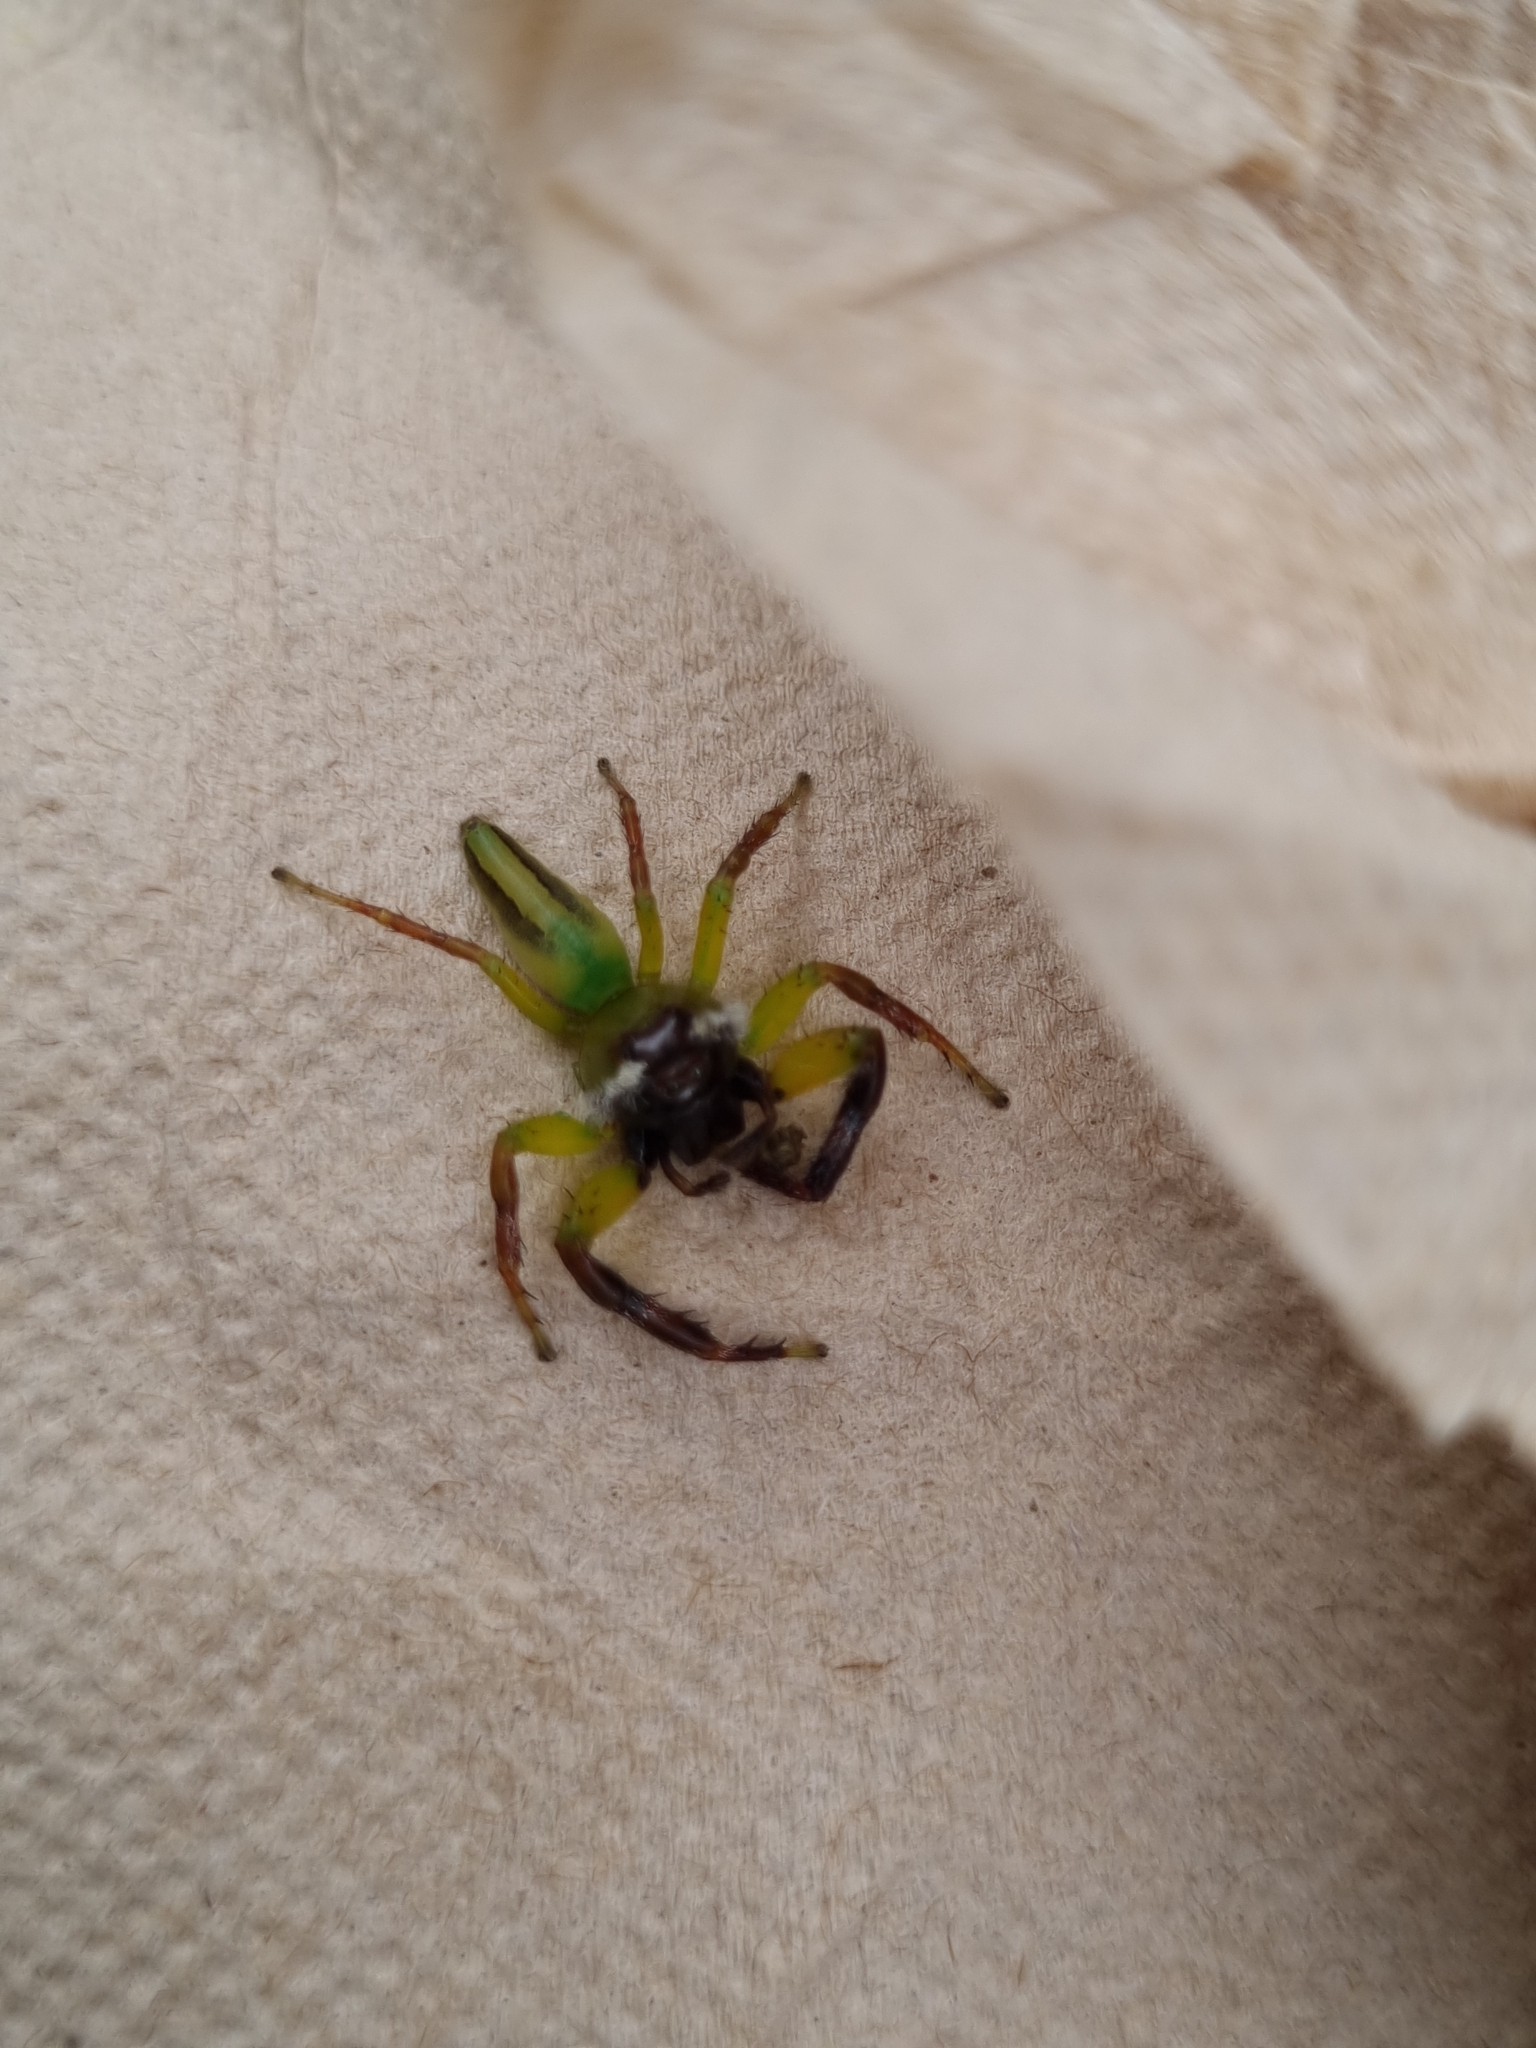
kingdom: Animalia
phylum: Arthropoda
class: Arachnida
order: Araneae
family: Salticidae
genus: Mopsus
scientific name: Mopsus mormon
